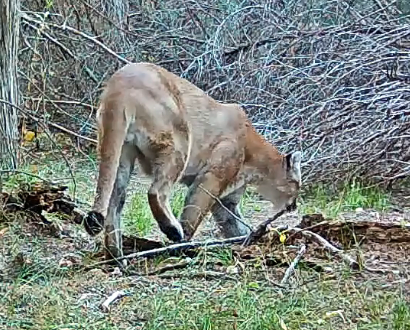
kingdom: Animalia
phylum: Chordata
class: Mammalia
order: Carnivora
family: Felidae
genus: Puma
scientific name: Puma concolor
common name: Puma
